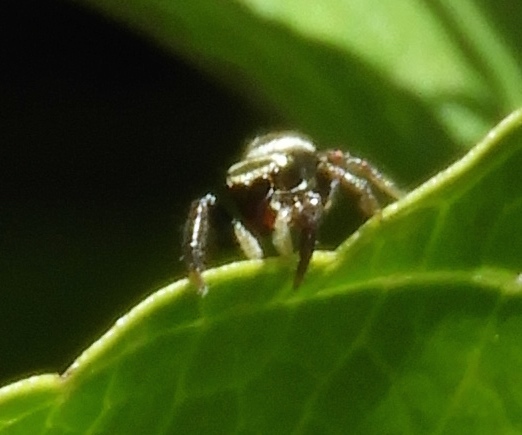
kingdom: Animalia
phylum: Arthropoda
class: Arachnida
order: Araneae
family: Salticidae
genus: Sassacus
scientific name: Sassacus
